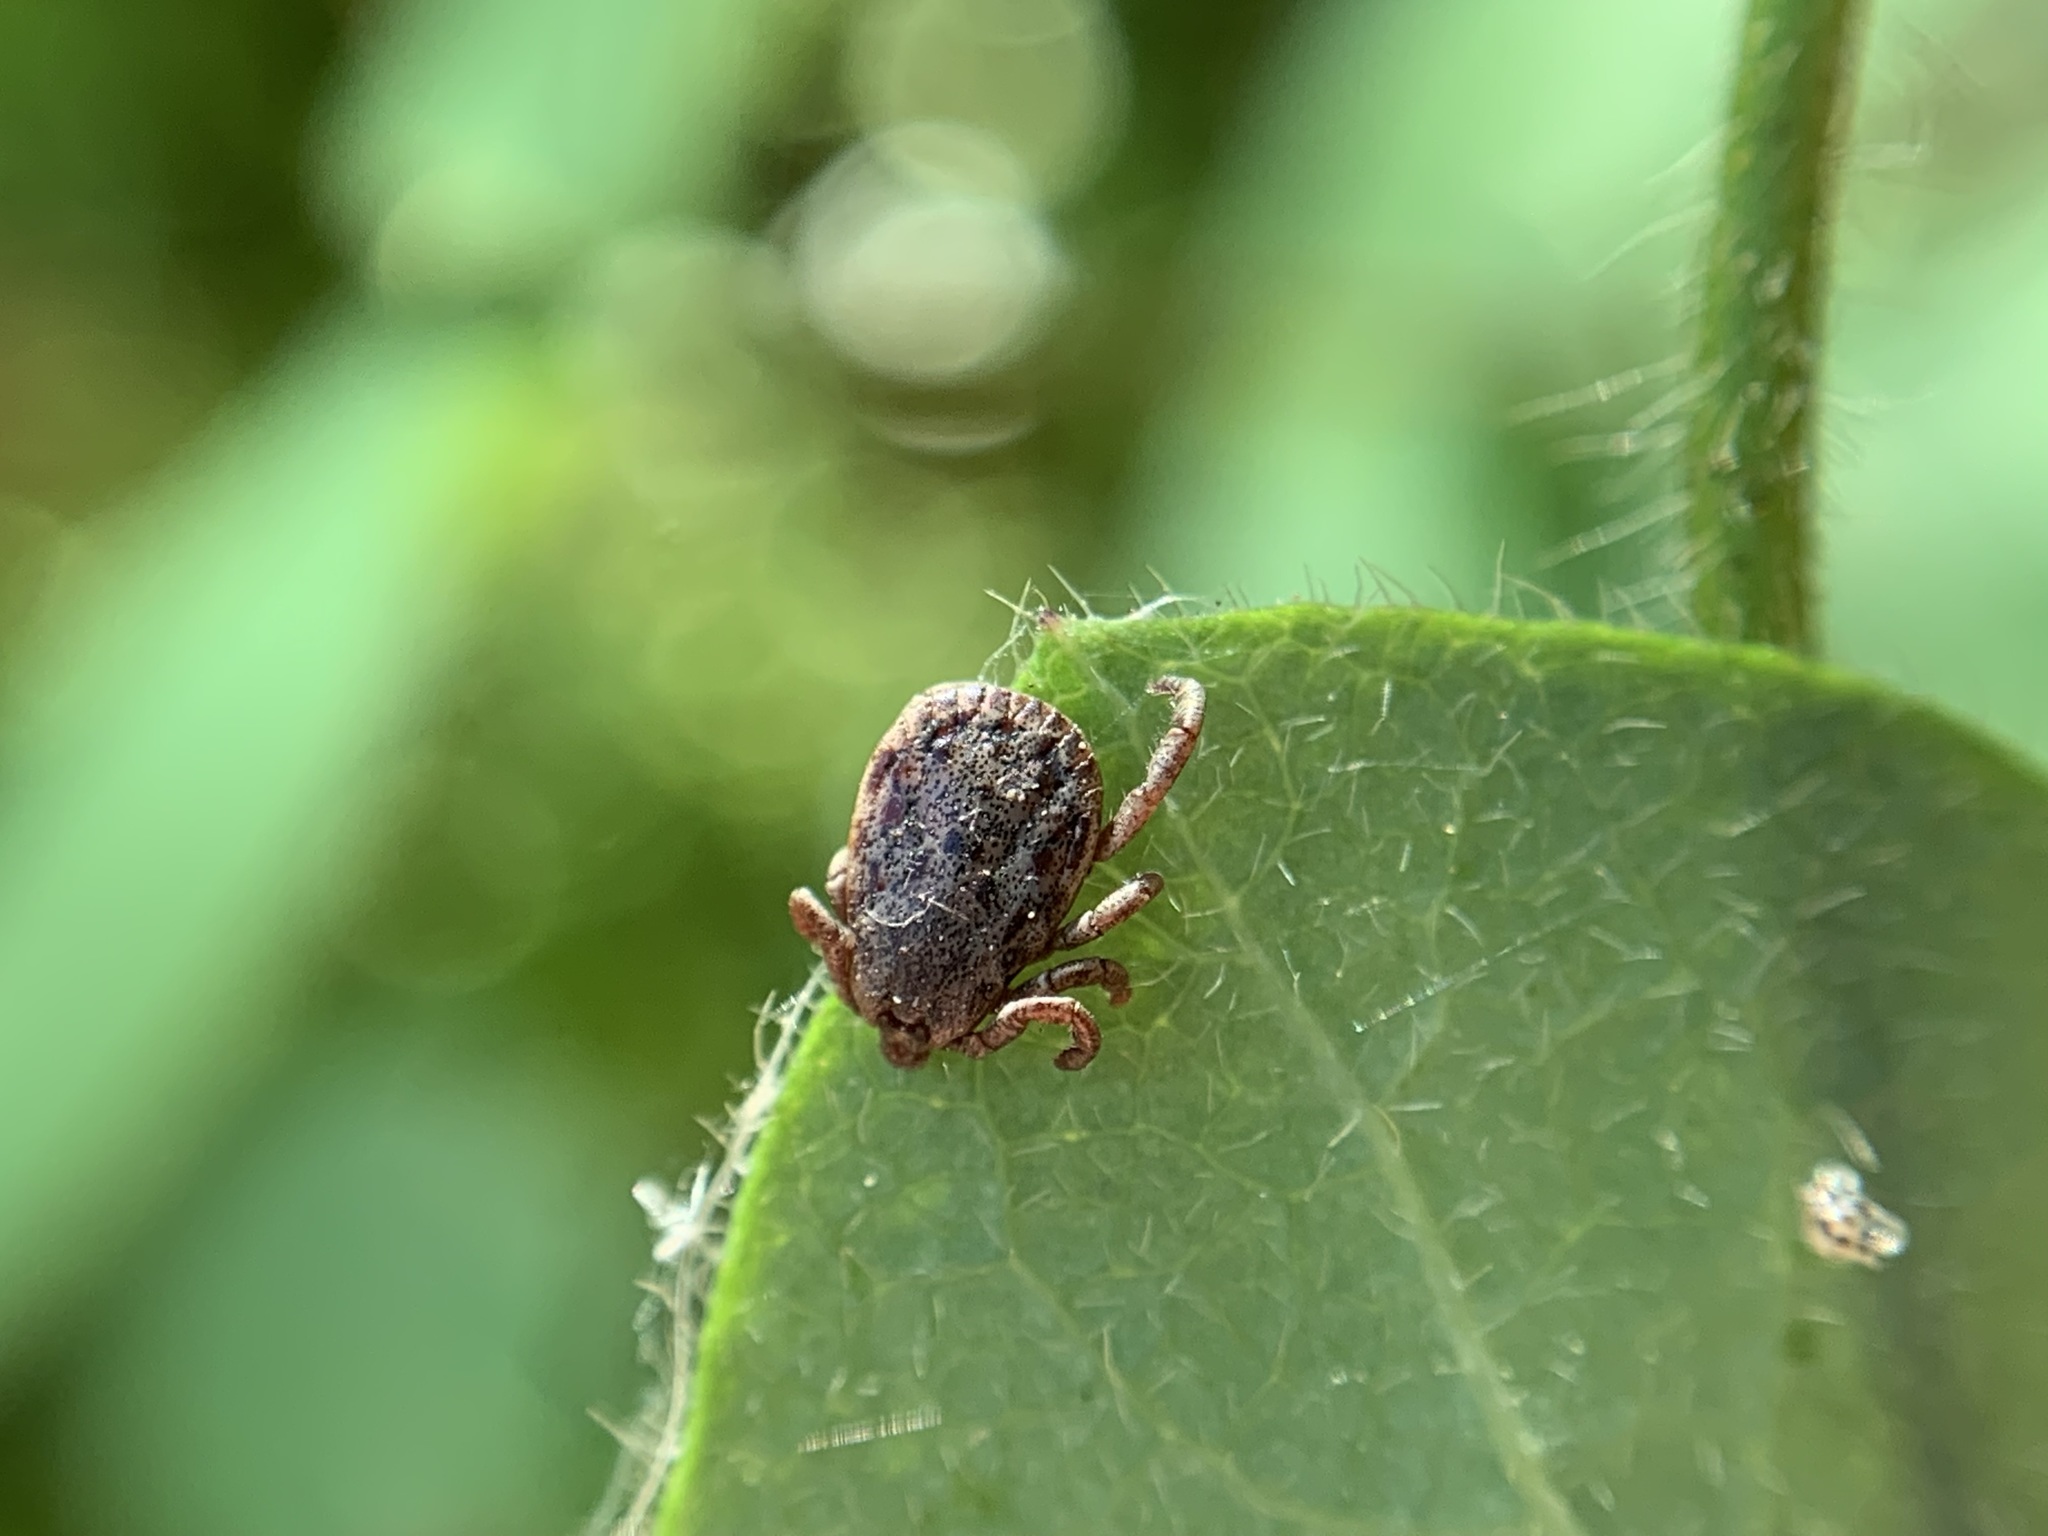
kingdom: Animalia
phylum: Arthropoda
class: Arachnida
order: Ixodida
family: Ixodidae
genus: Dermacentor
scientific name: Dermacentor occidentalis
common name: Net tick
